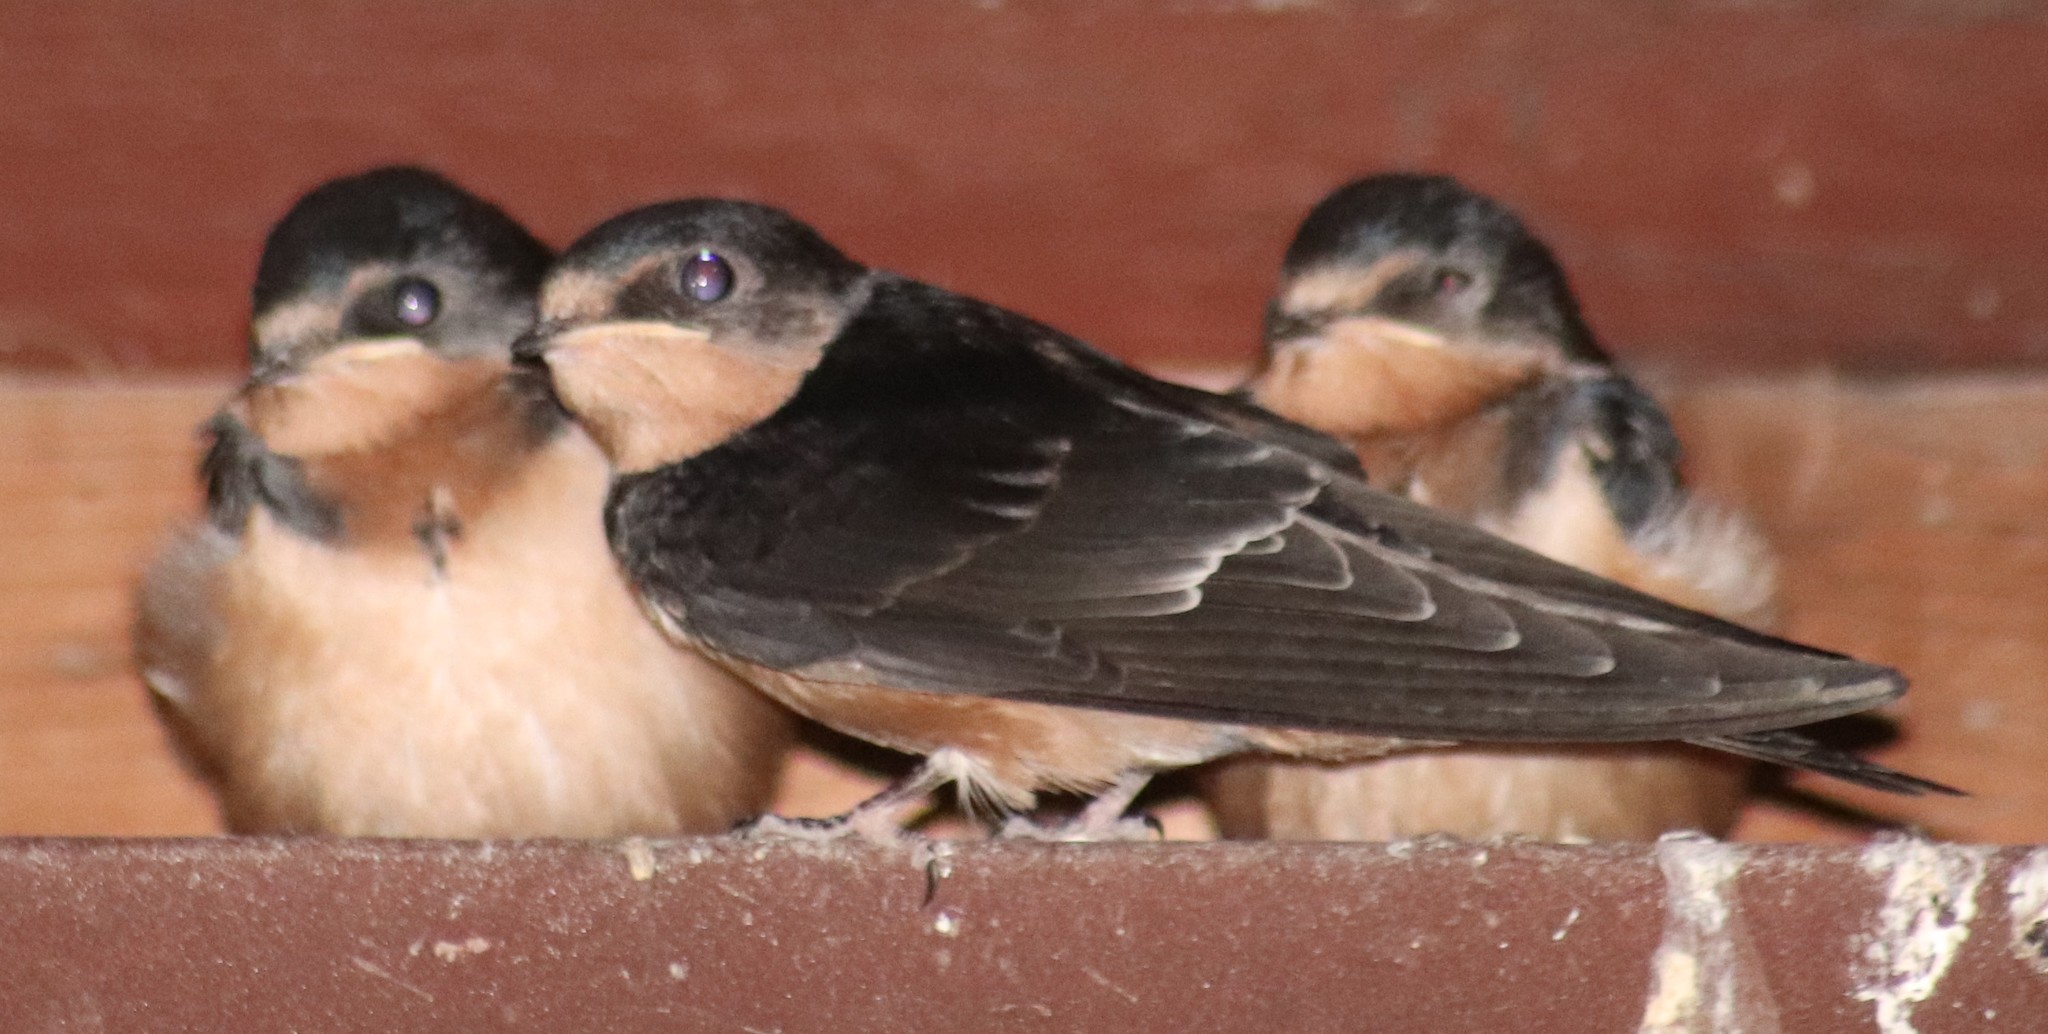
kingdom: Animalia
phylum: Chordata
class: Aves
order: Passeriformes
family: Hirundinidae
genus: Hirundo
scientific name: Hirundo rustica
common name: Barn swallow
